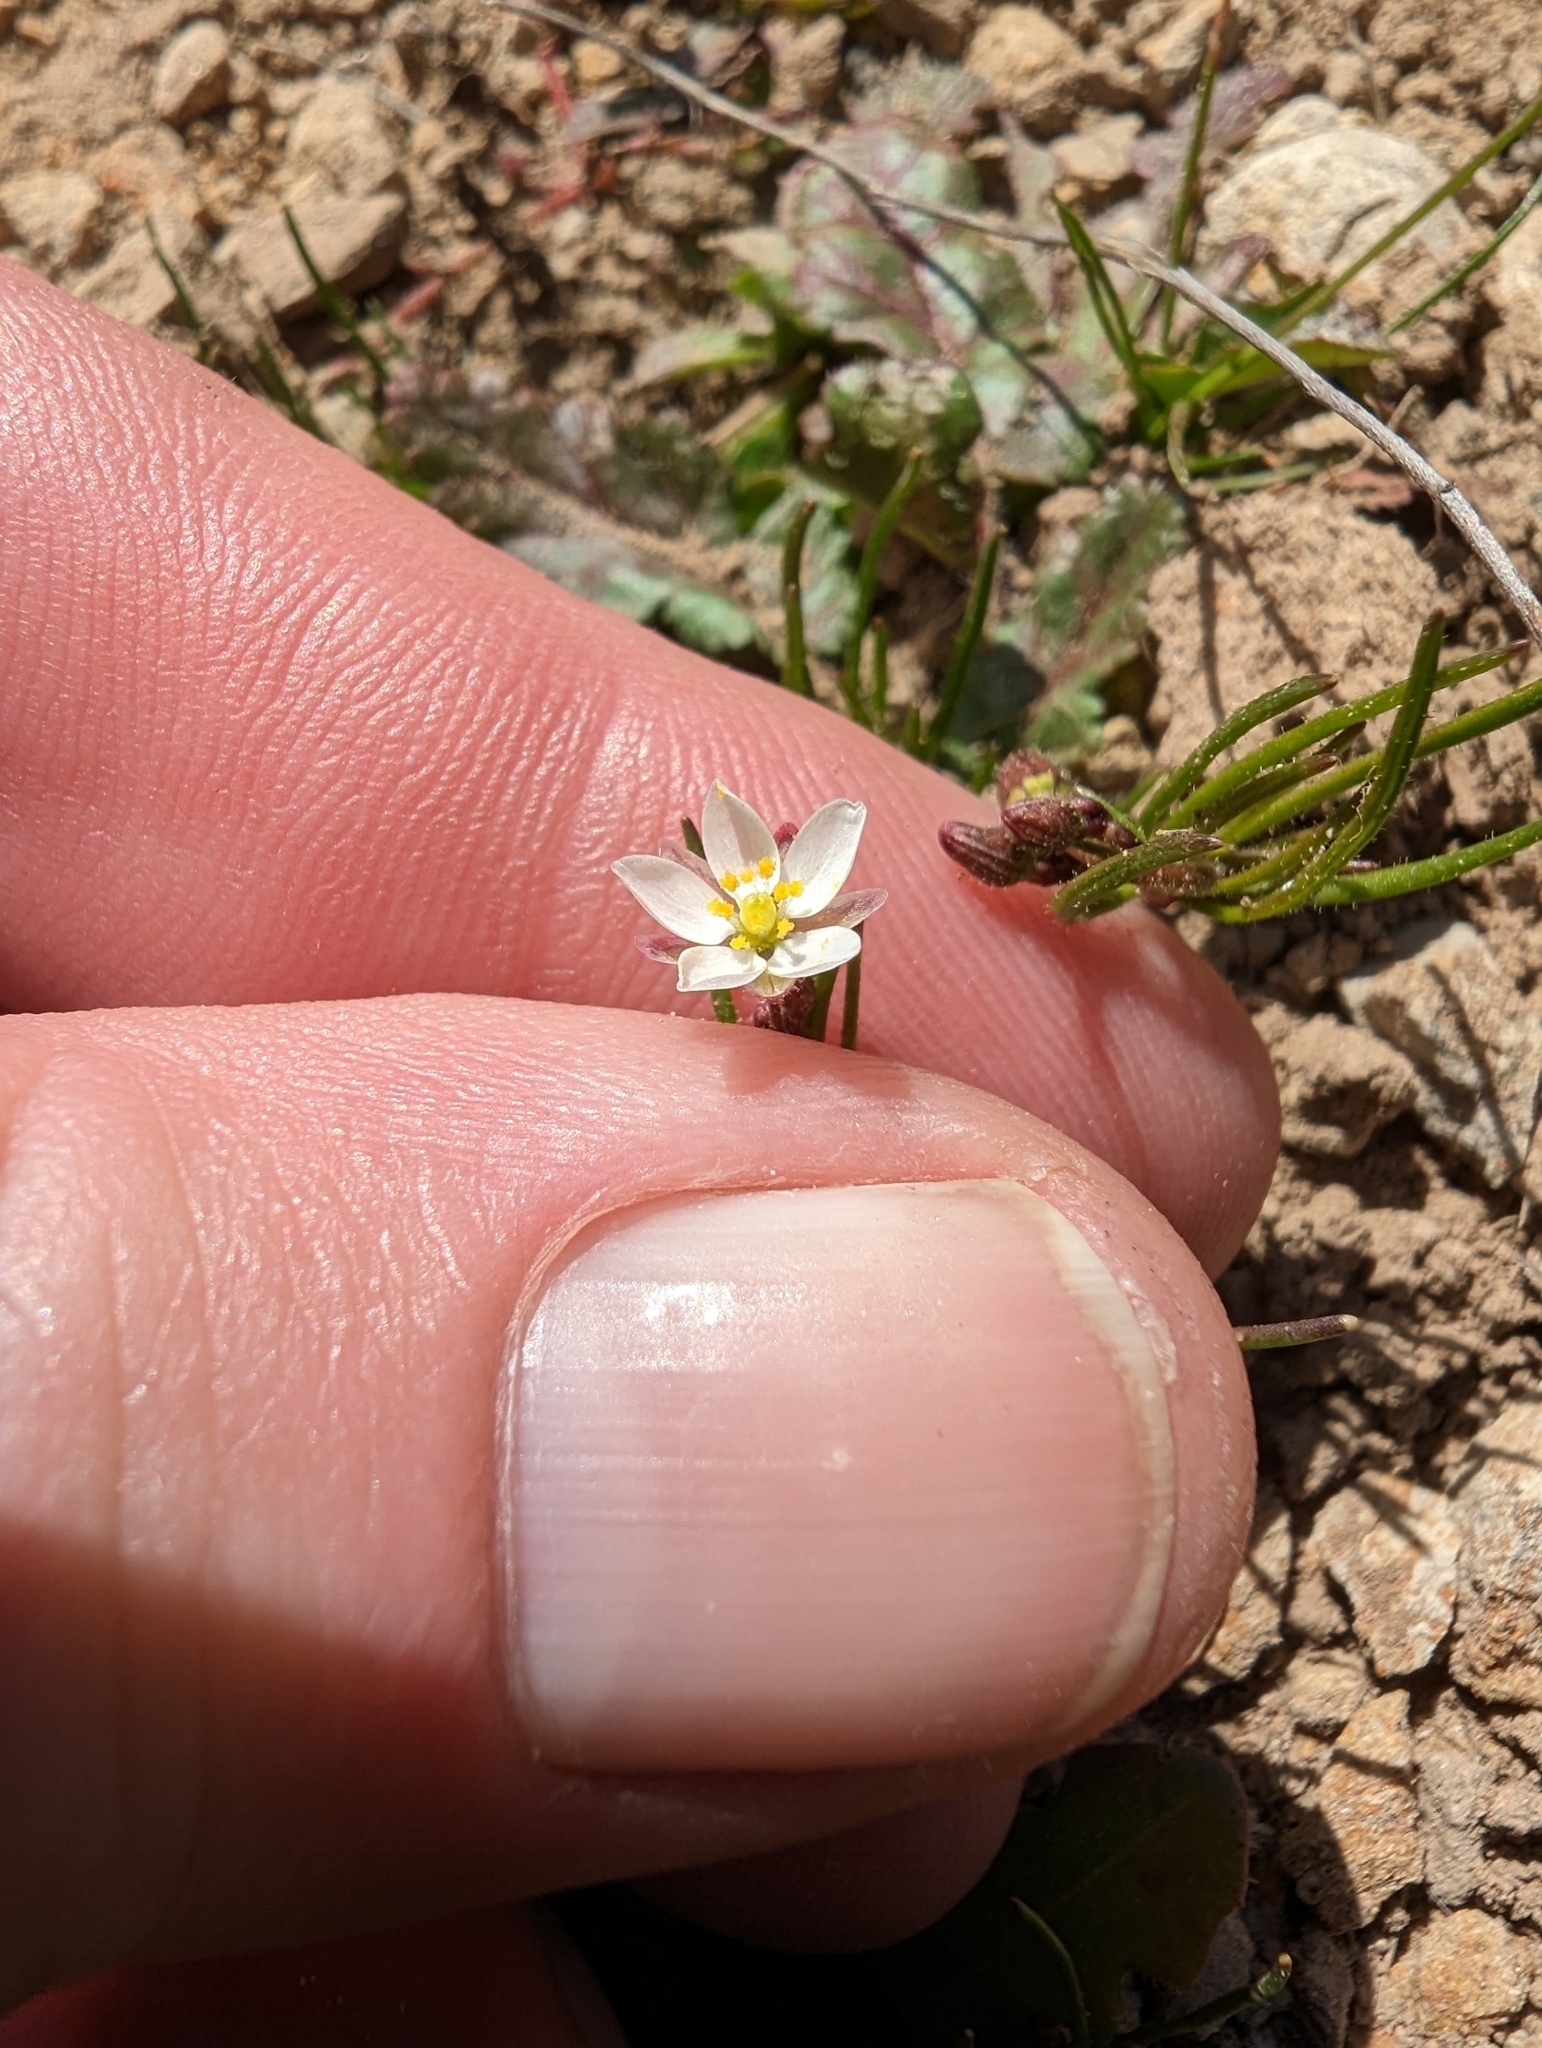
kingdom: Plantae
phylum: Tracheophyta
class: Magnoliopsida
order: Caryophyllales
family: Caryophyllaceae
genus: Spergula
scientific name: Spergula arvensis
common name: Corn spurrey
